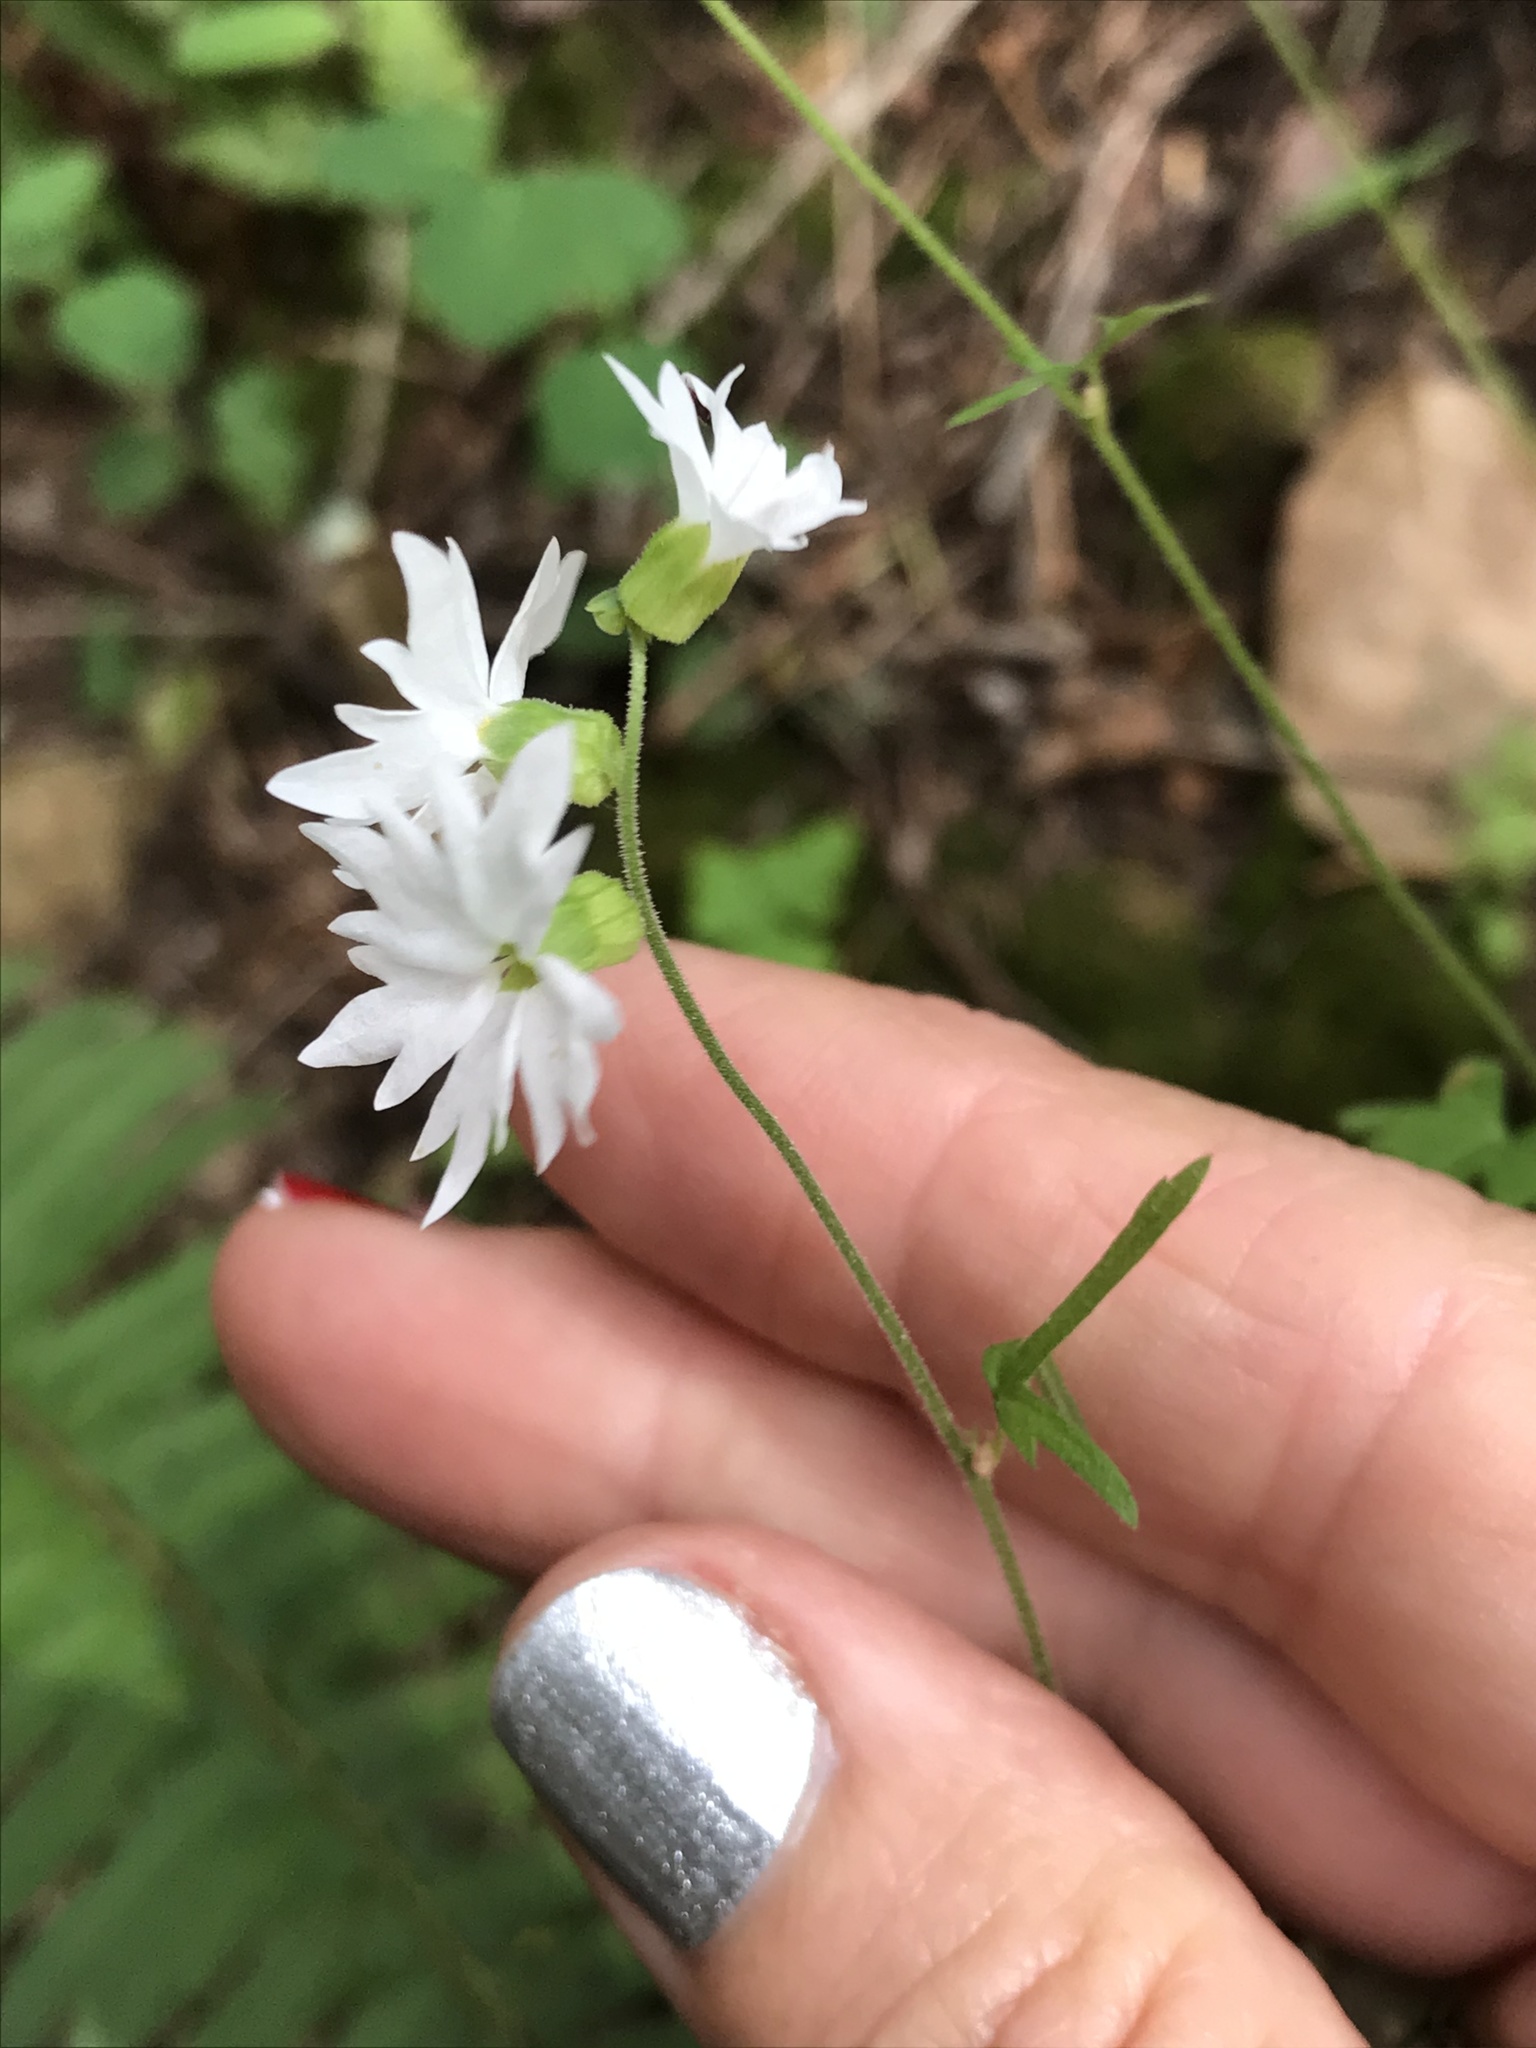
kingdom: Plantae
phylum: Tracheophyta
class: Magnoliopsida
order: Saxifragales
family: Saxifragaceae
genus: Lithophragma
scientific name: Lithophragma heterophyllum
